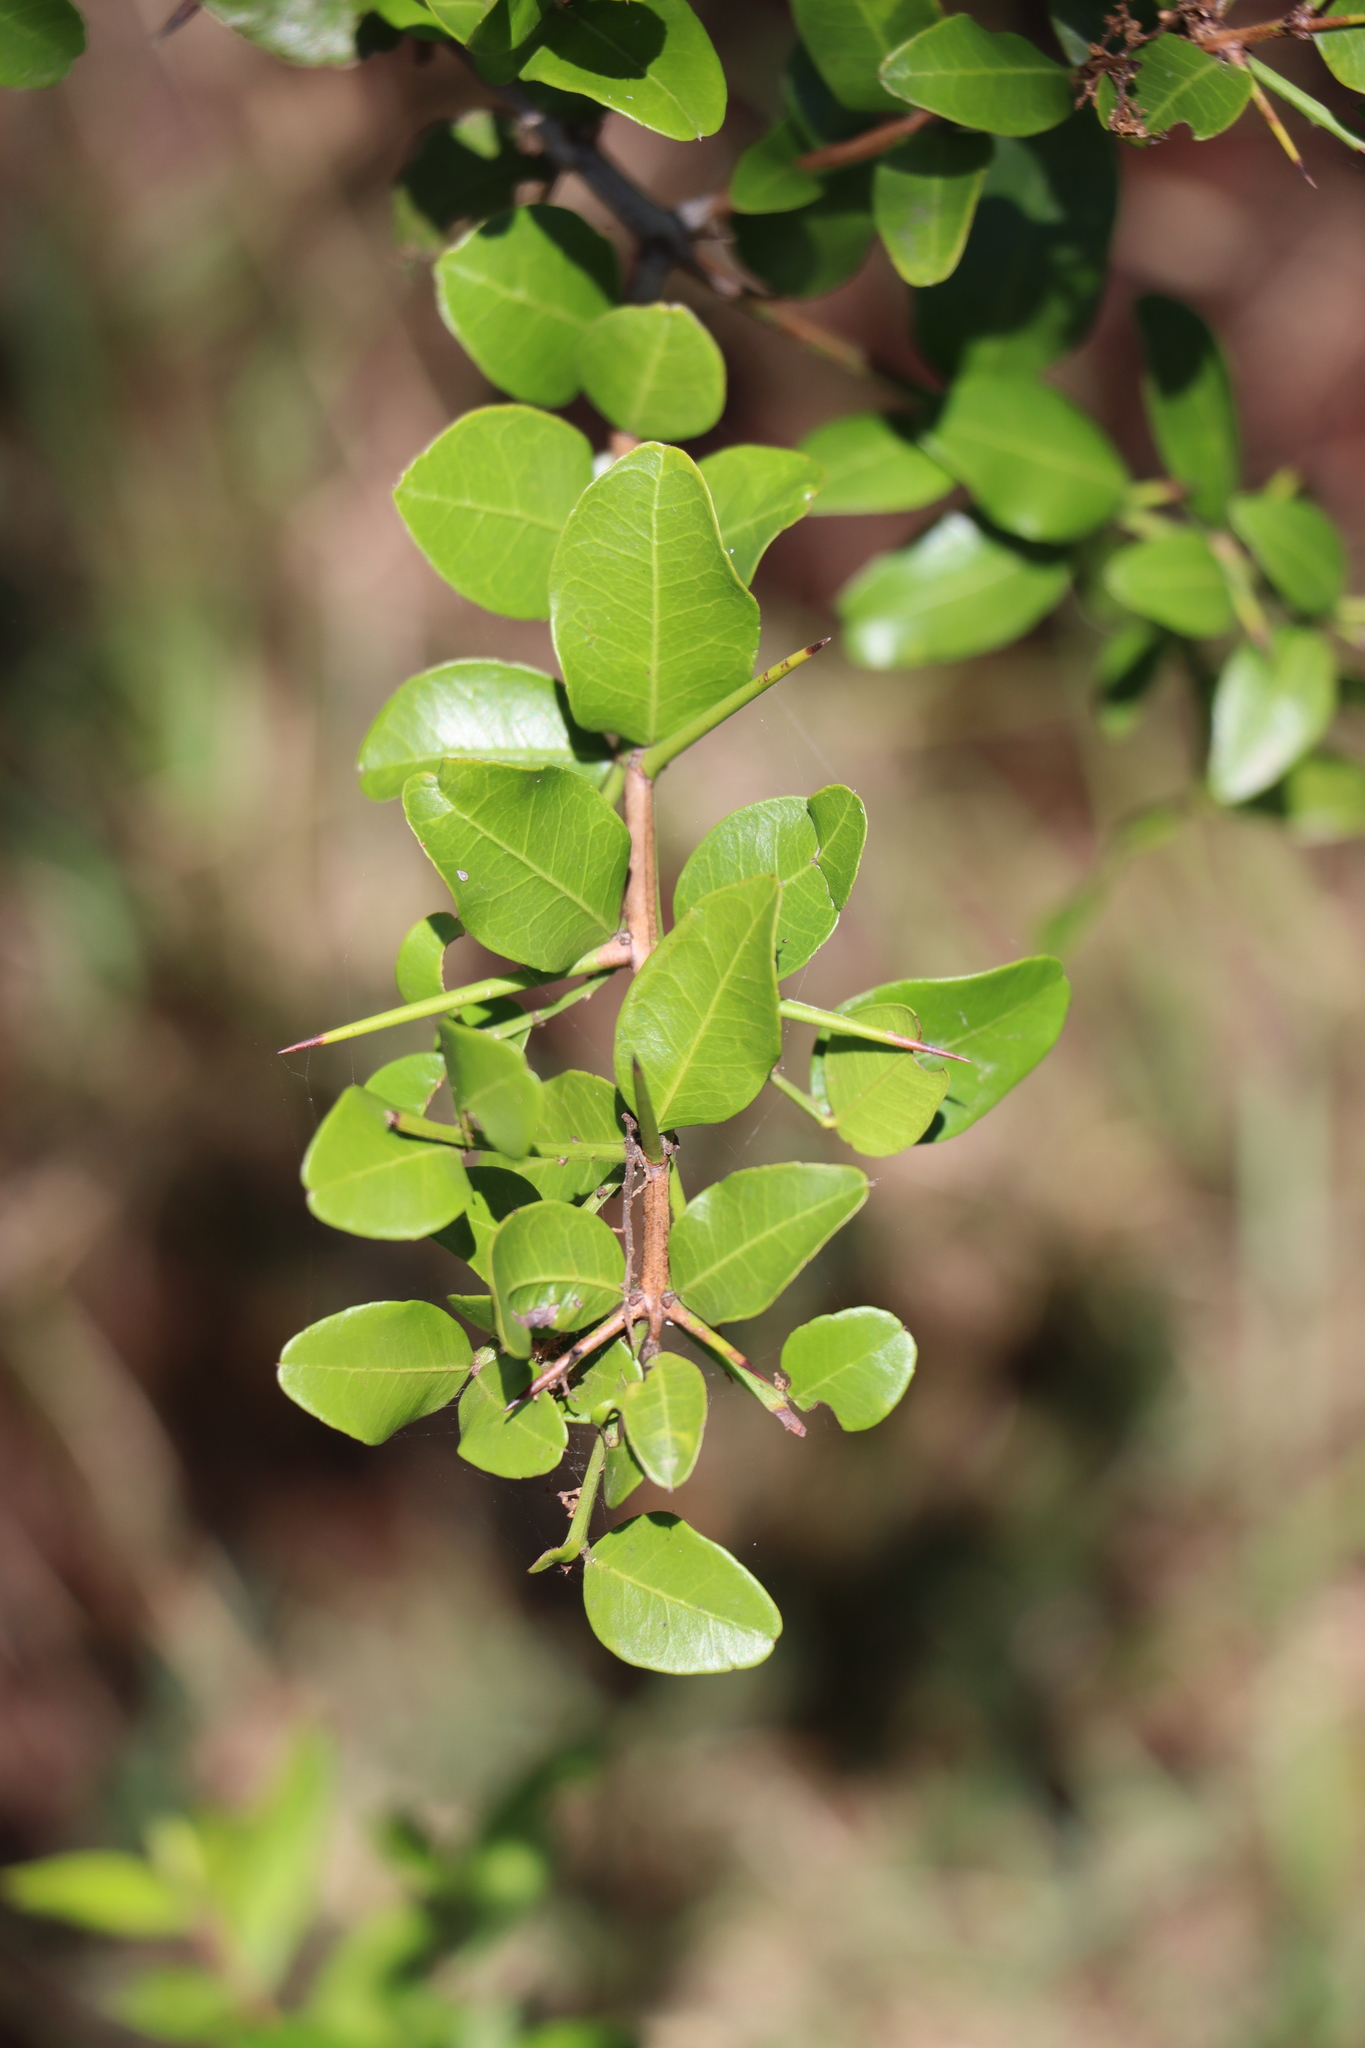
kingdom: Plantae
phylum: Tracheophyta
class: Magnoliopsida
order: Rosales
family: Rhamnaceae
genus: Scutia
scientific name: Scutia buxifolia
